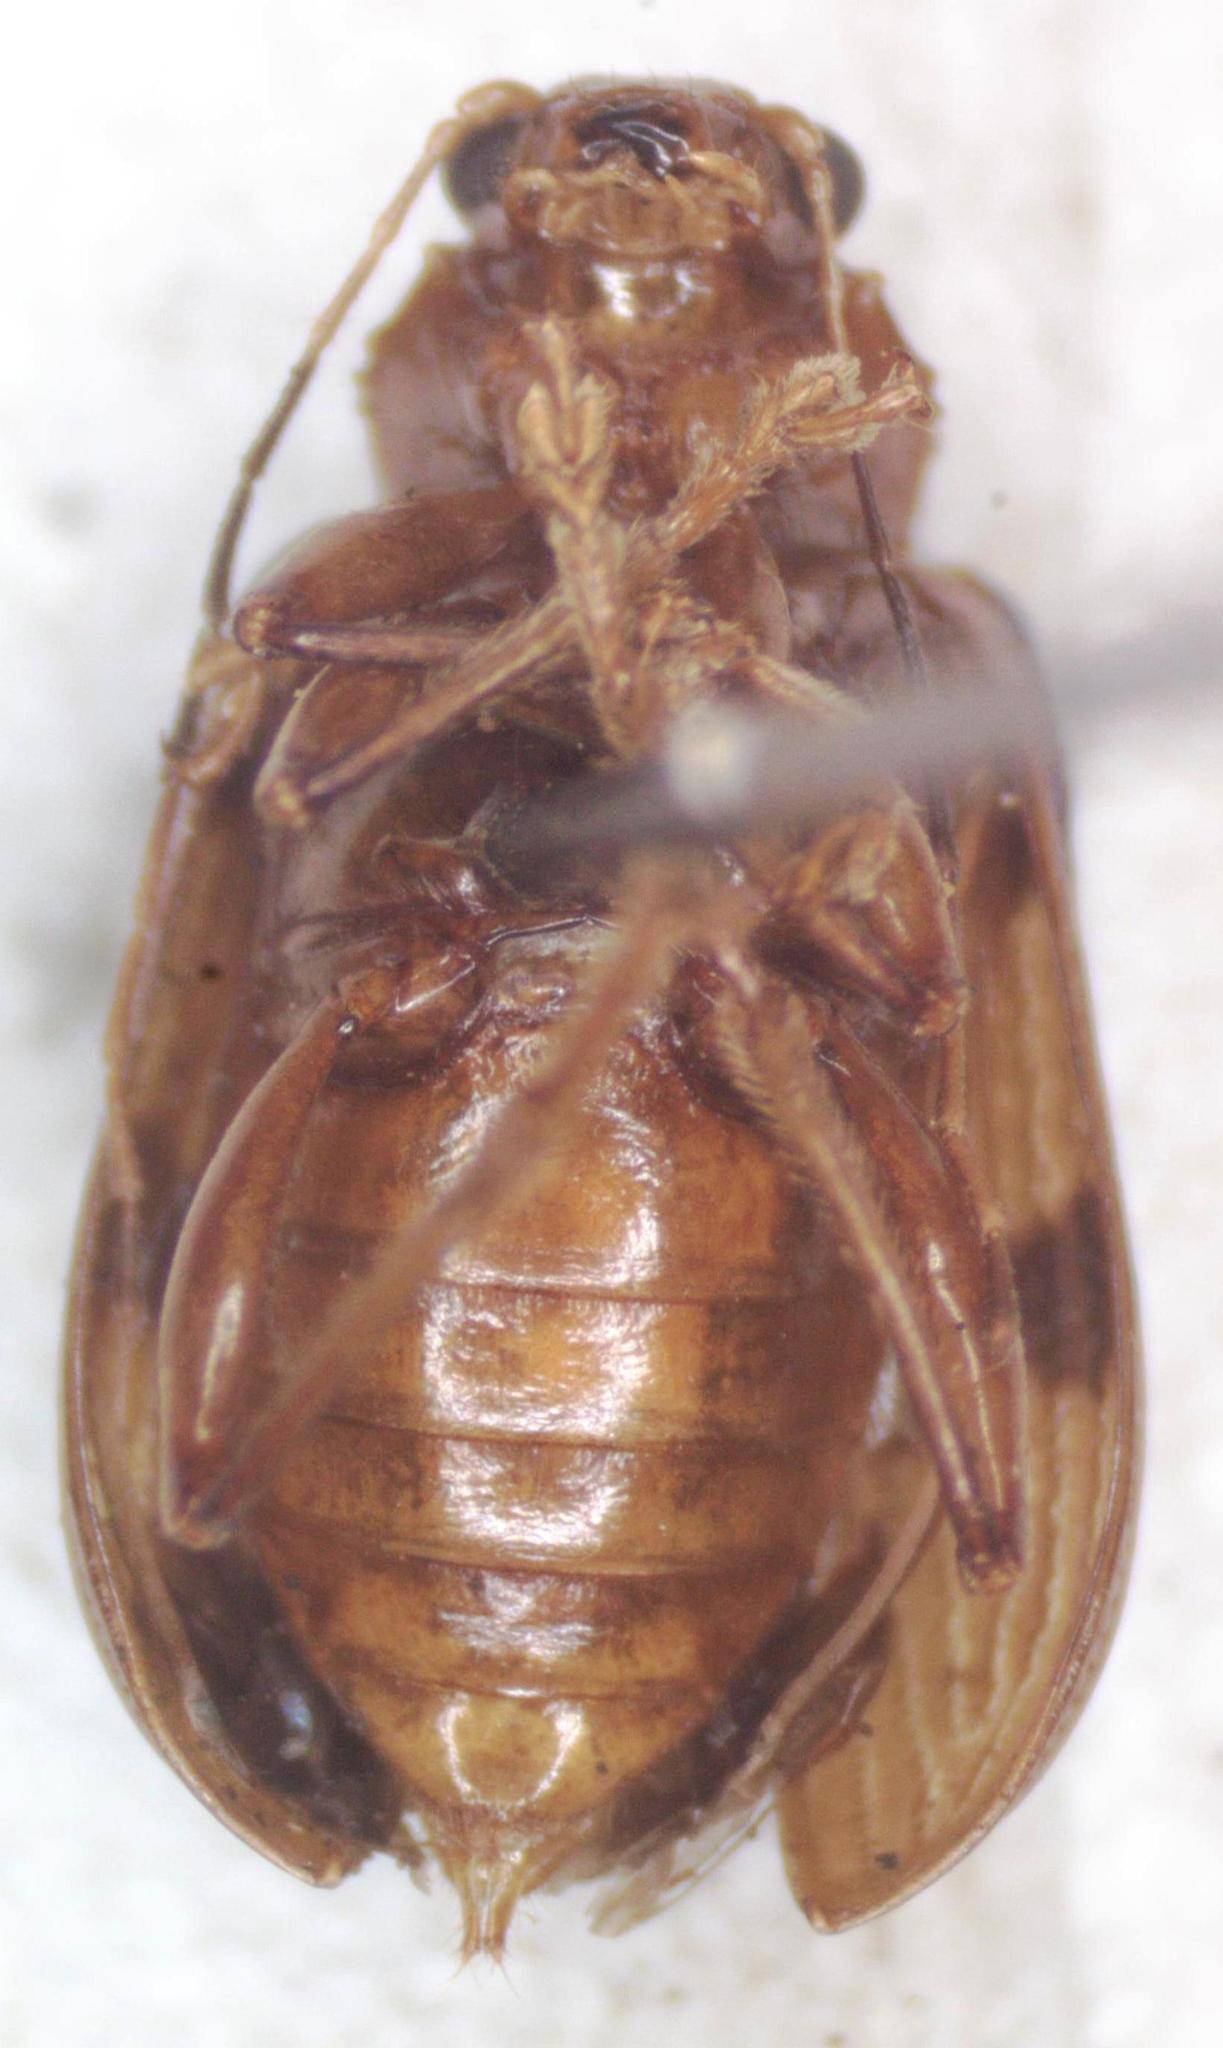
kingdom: Animalia
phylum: Arthropoda
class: Insecta
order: Coleoptera
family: Chrysomelidae
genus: Metaxyonycha
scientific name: Metaxyonycha
